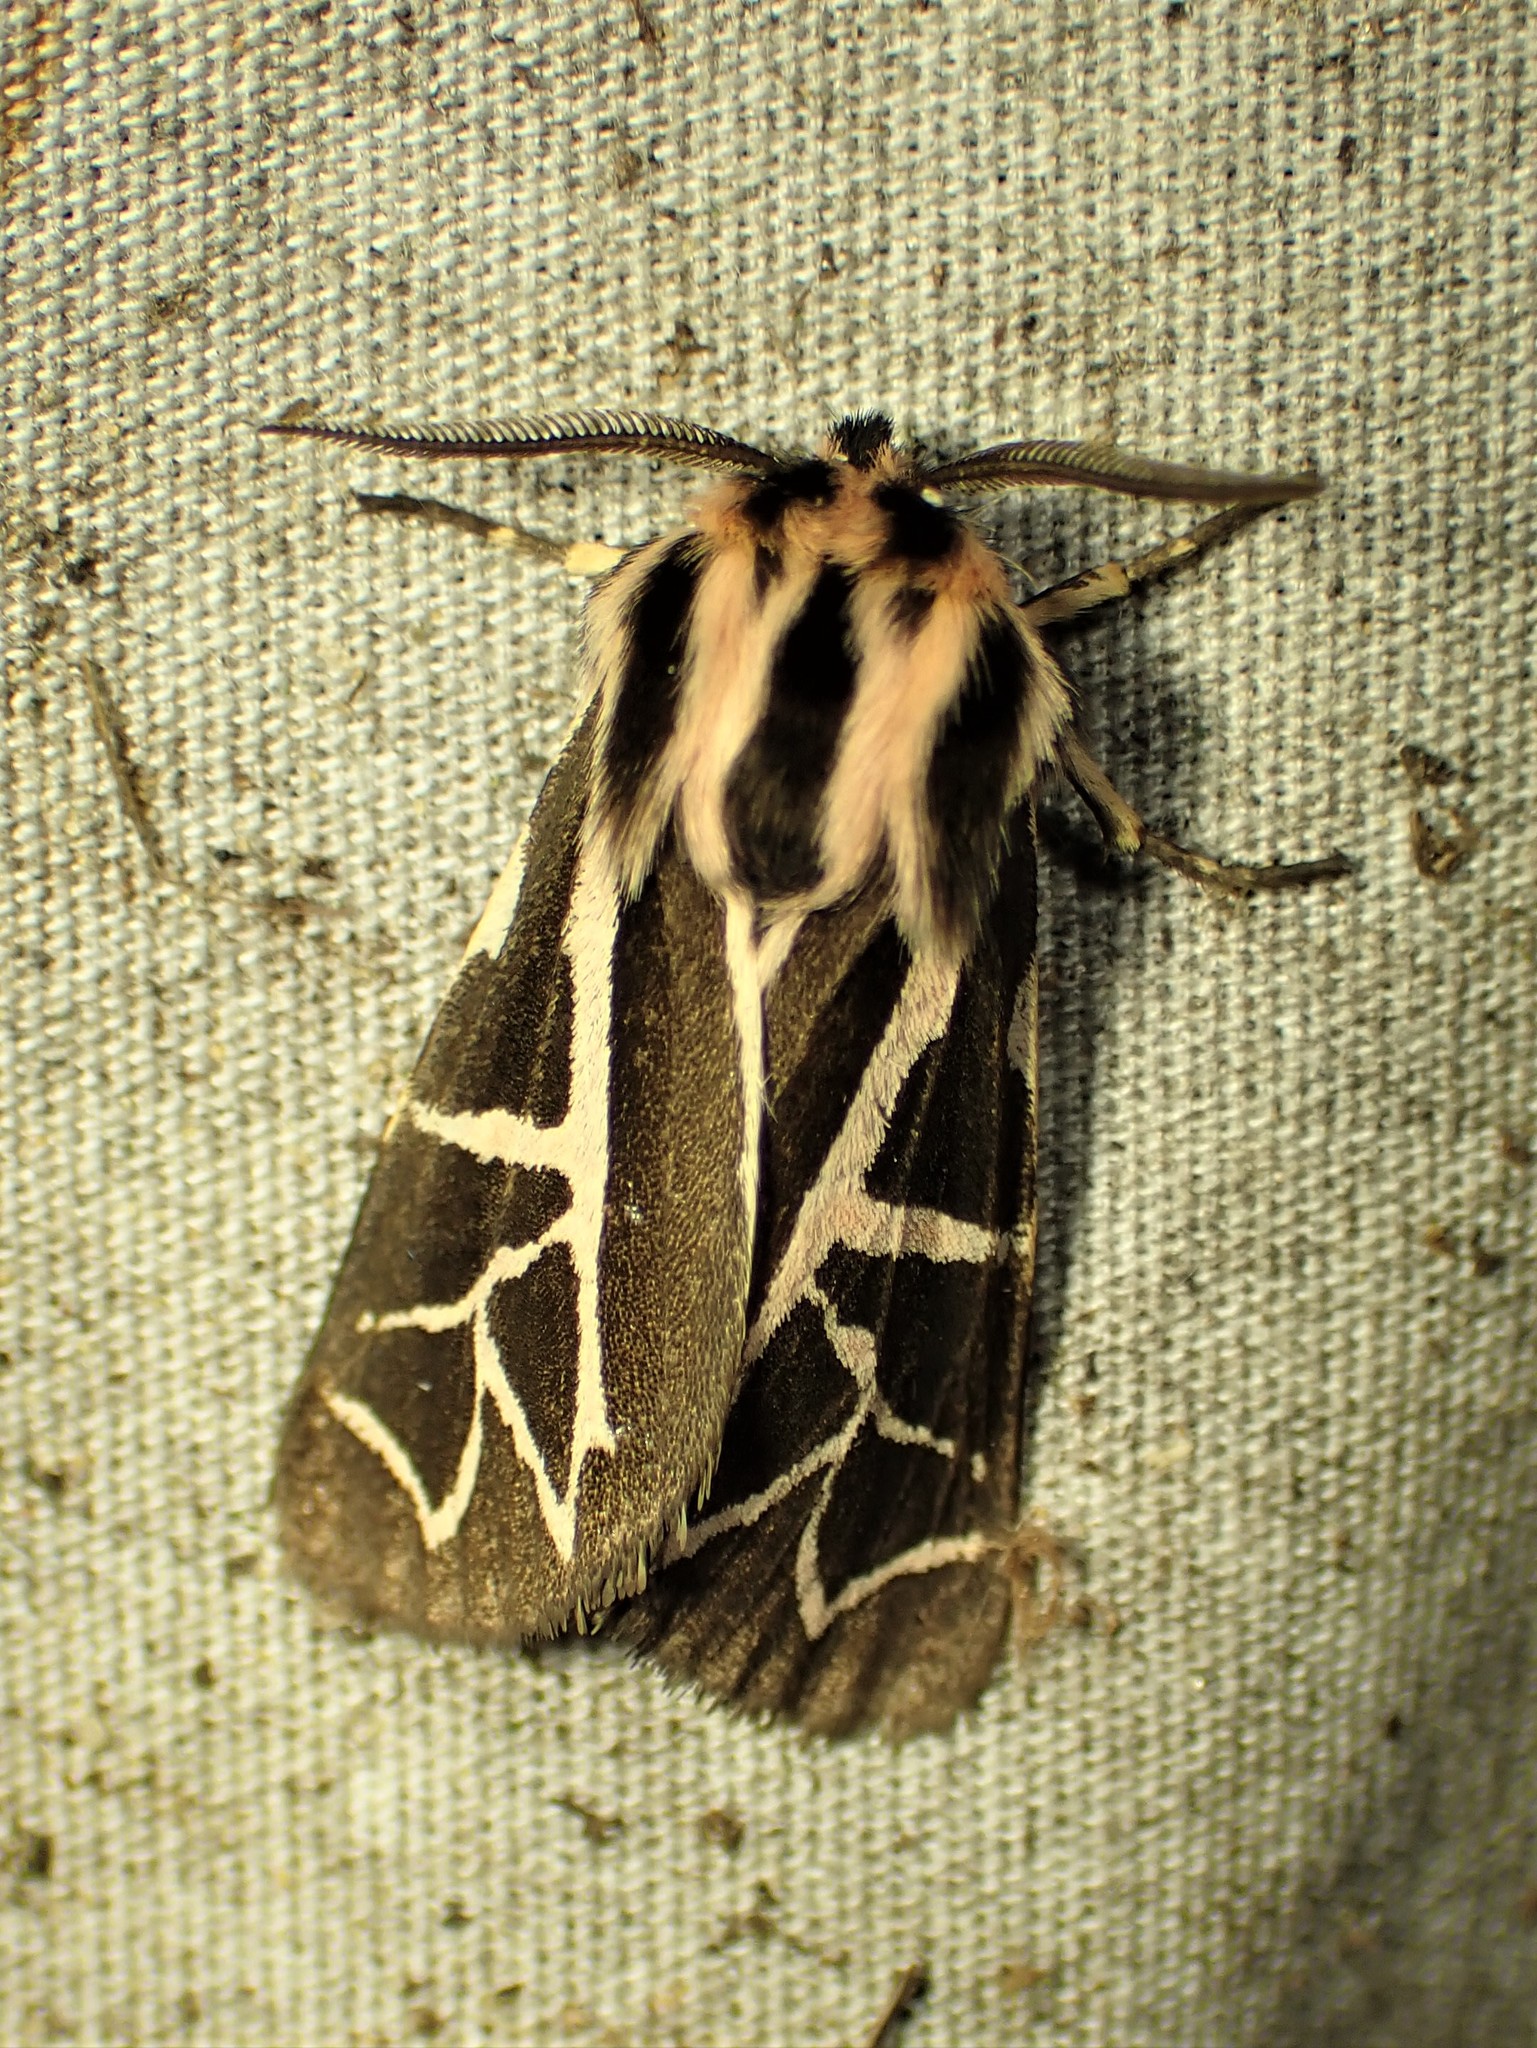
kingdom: Animalia
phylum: Arthropoda
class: Insecta
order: Lepidoptera
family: Erebidae
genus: Apantesis
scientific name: Apantesis
